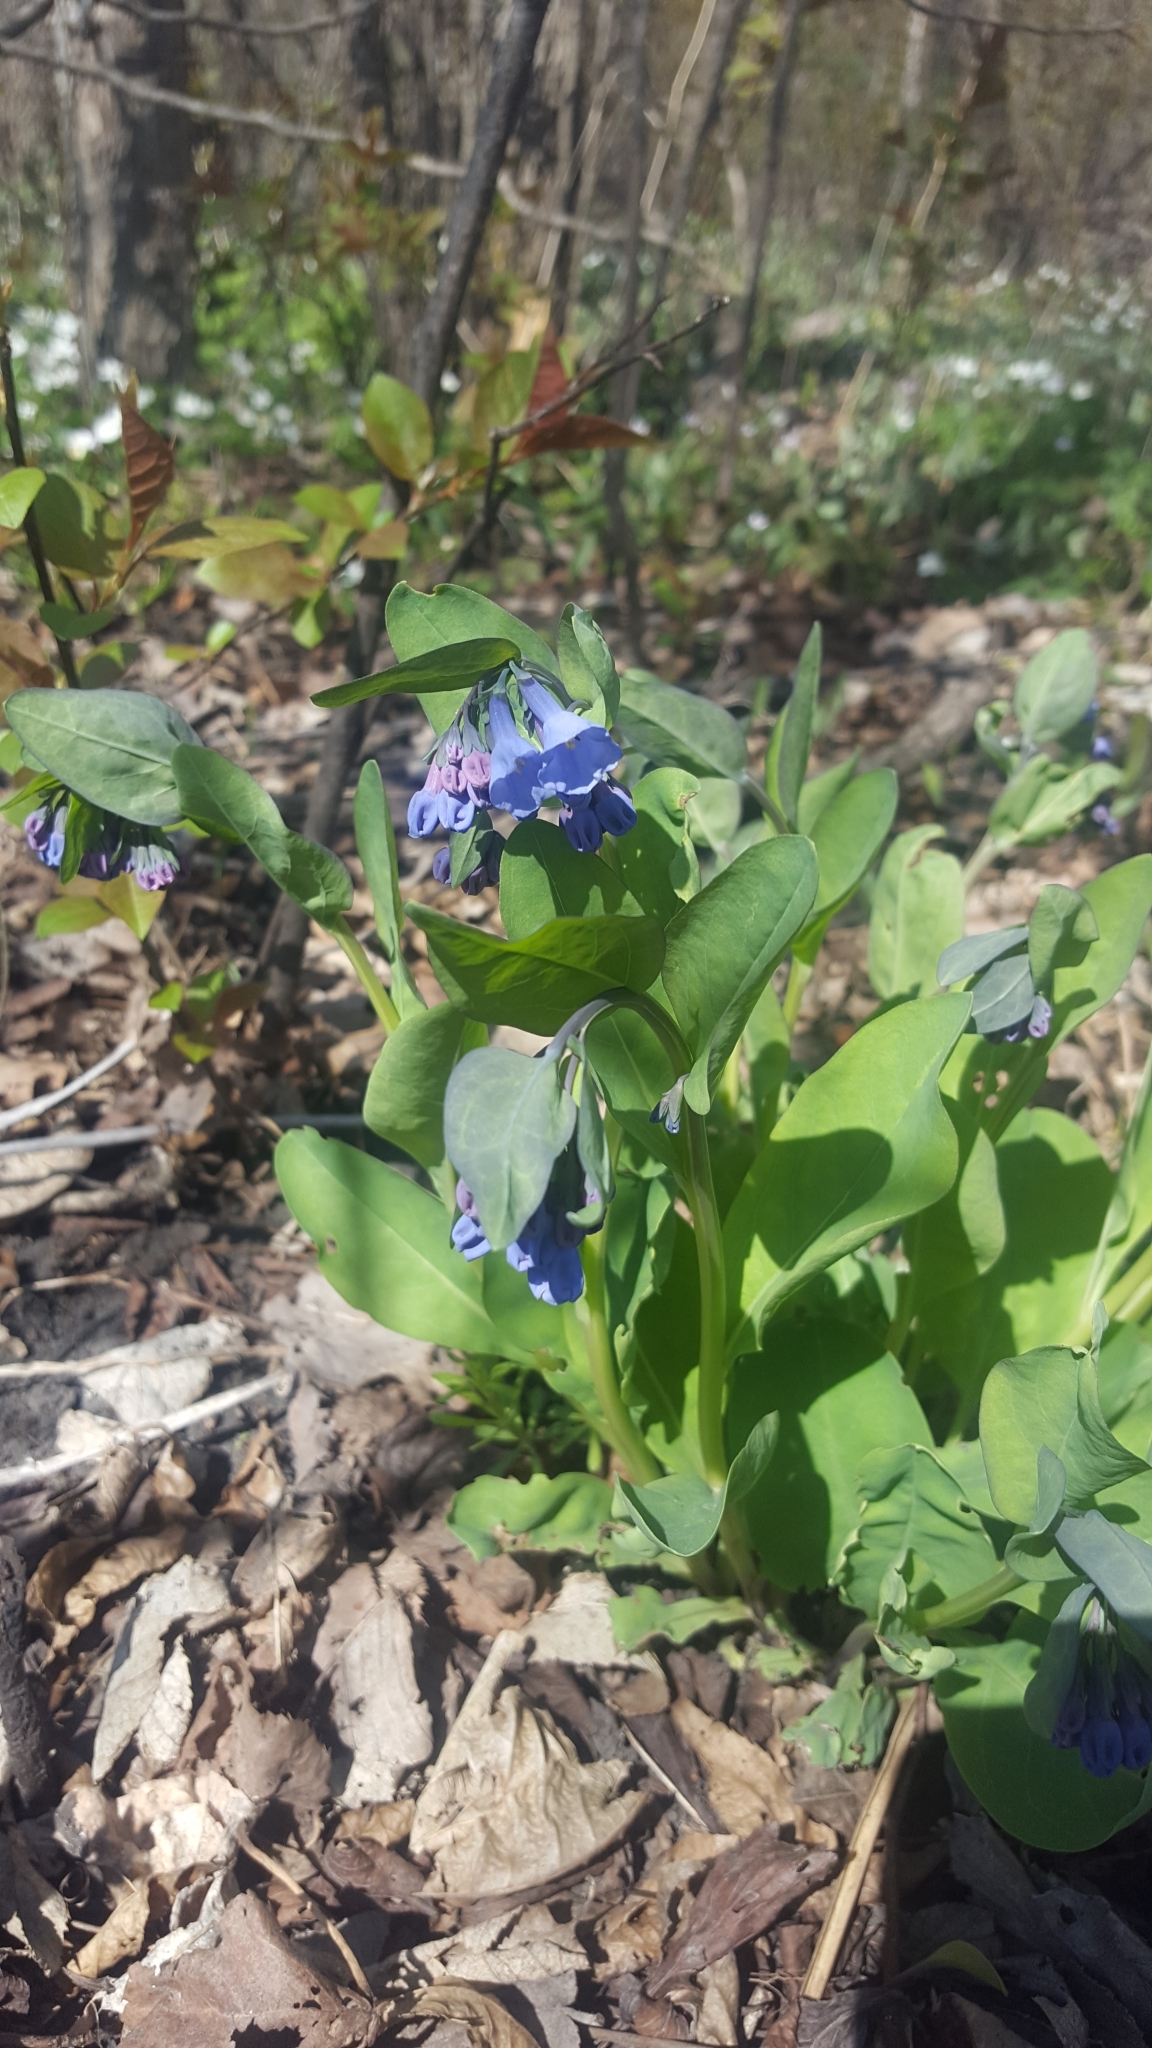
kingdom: Plantae
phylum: Tracheophyta
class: Magnoliopsida
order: Boraginales
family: Boraginaceae
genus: Mertensia
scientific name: Mertensia virginica
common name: Virginia bluebells
